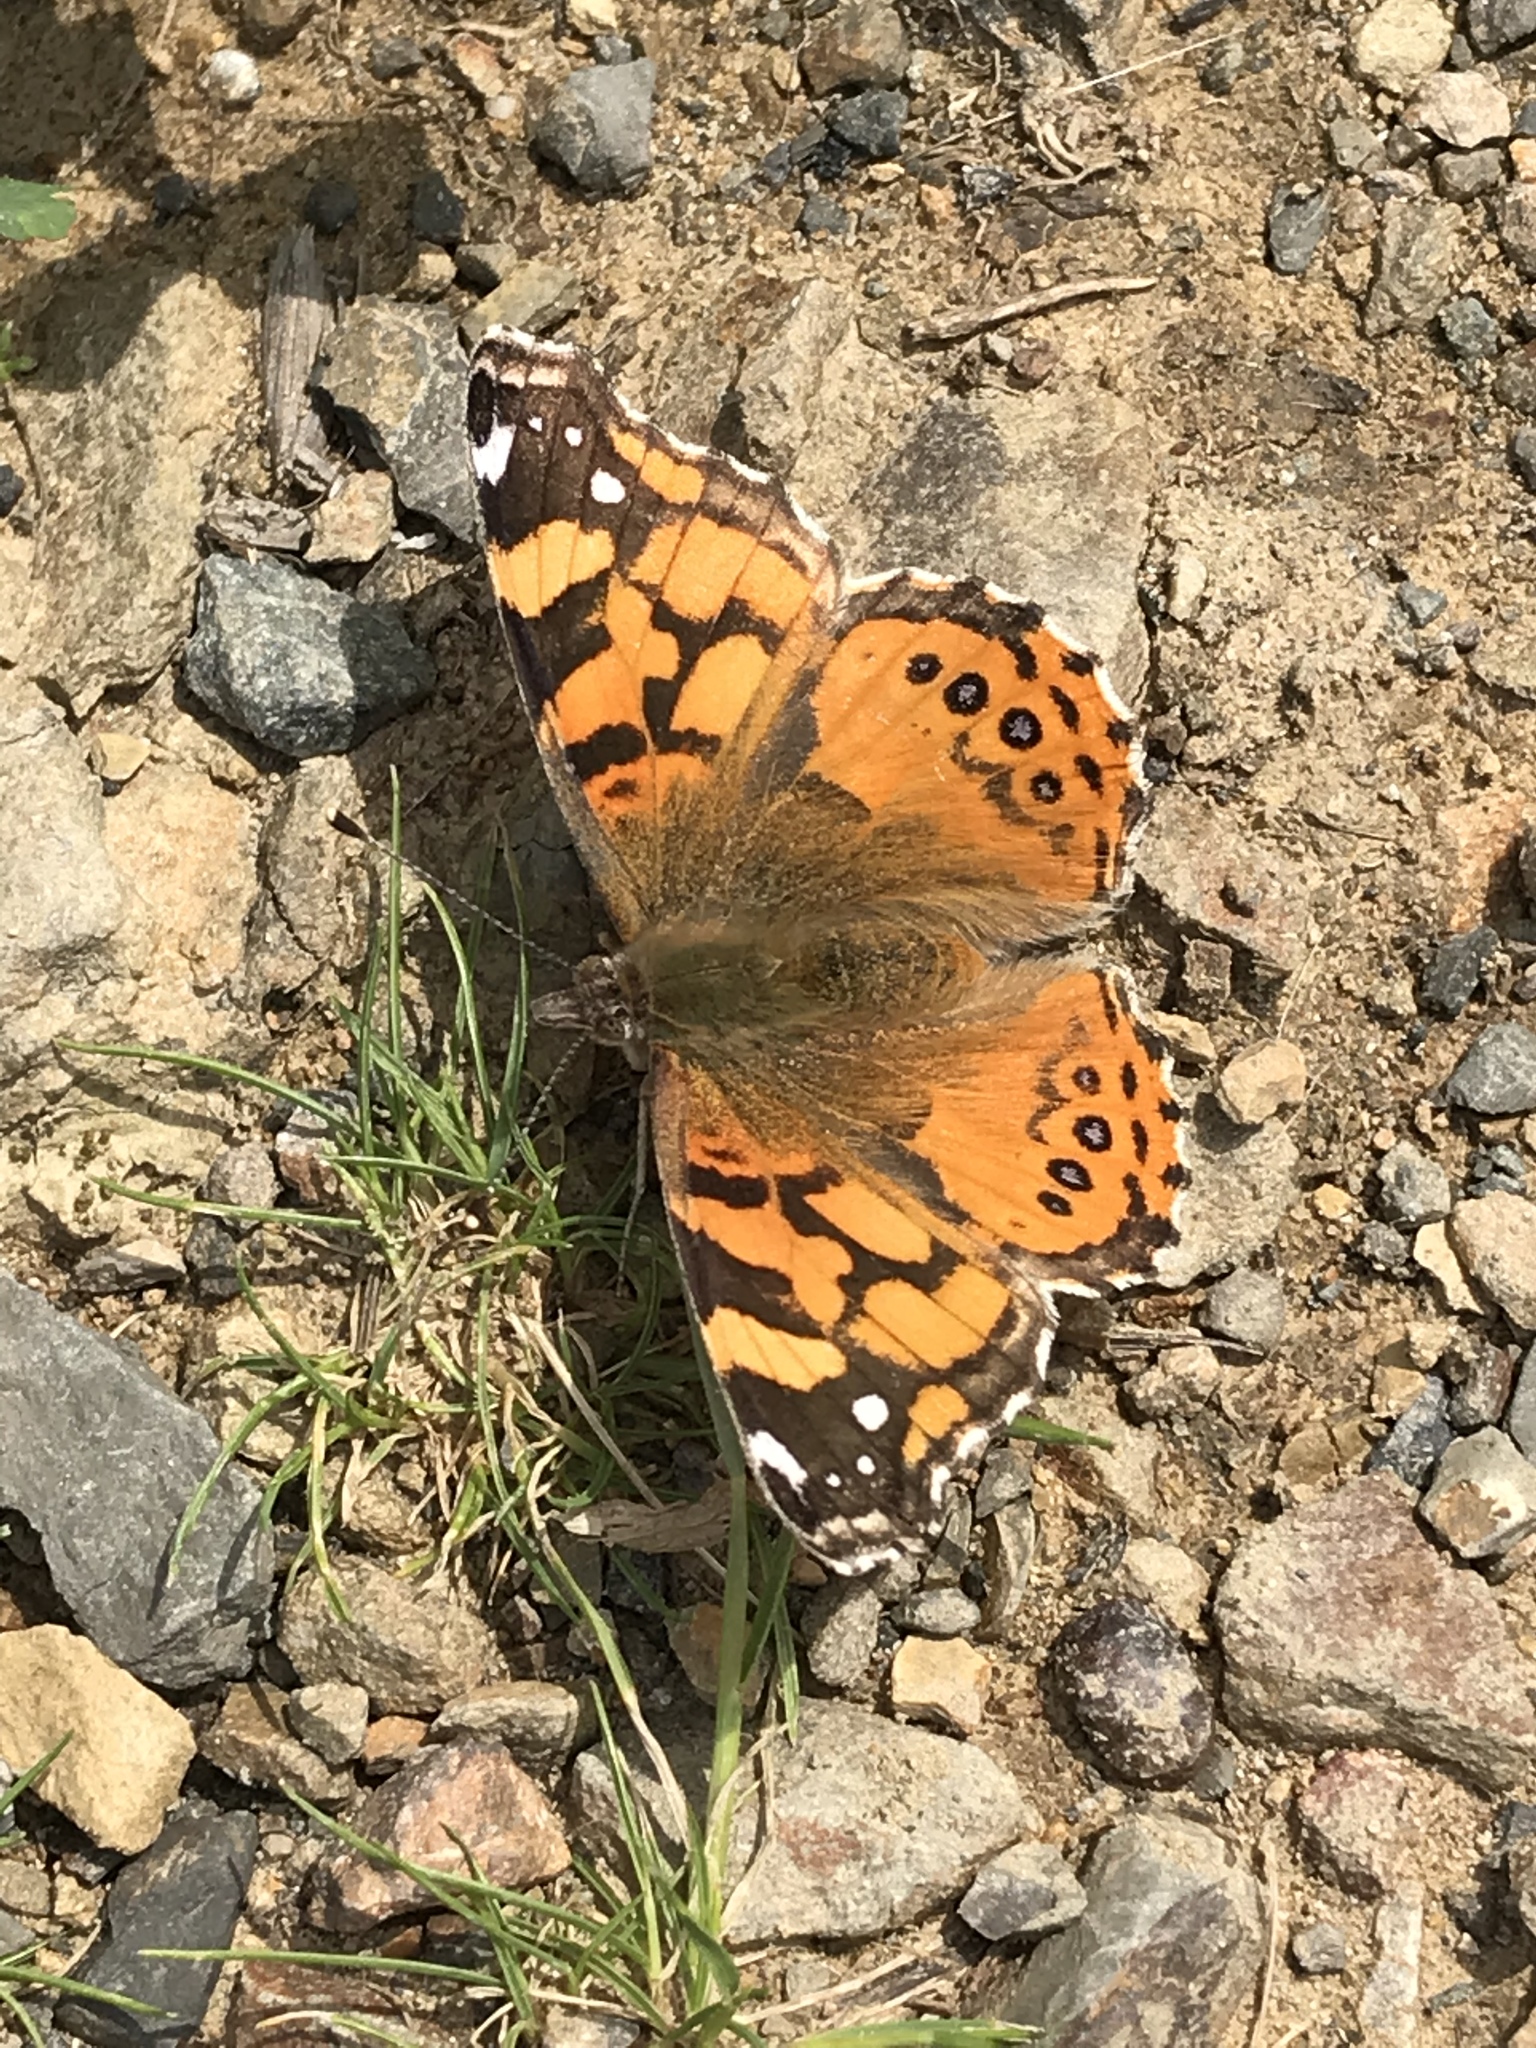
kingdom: Animalia
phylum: Arthropoda
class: Insecta
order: Lepidoptera
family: Nymphalidae
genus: Vanessa
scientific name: Vanessa annabella
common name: West coast lady
